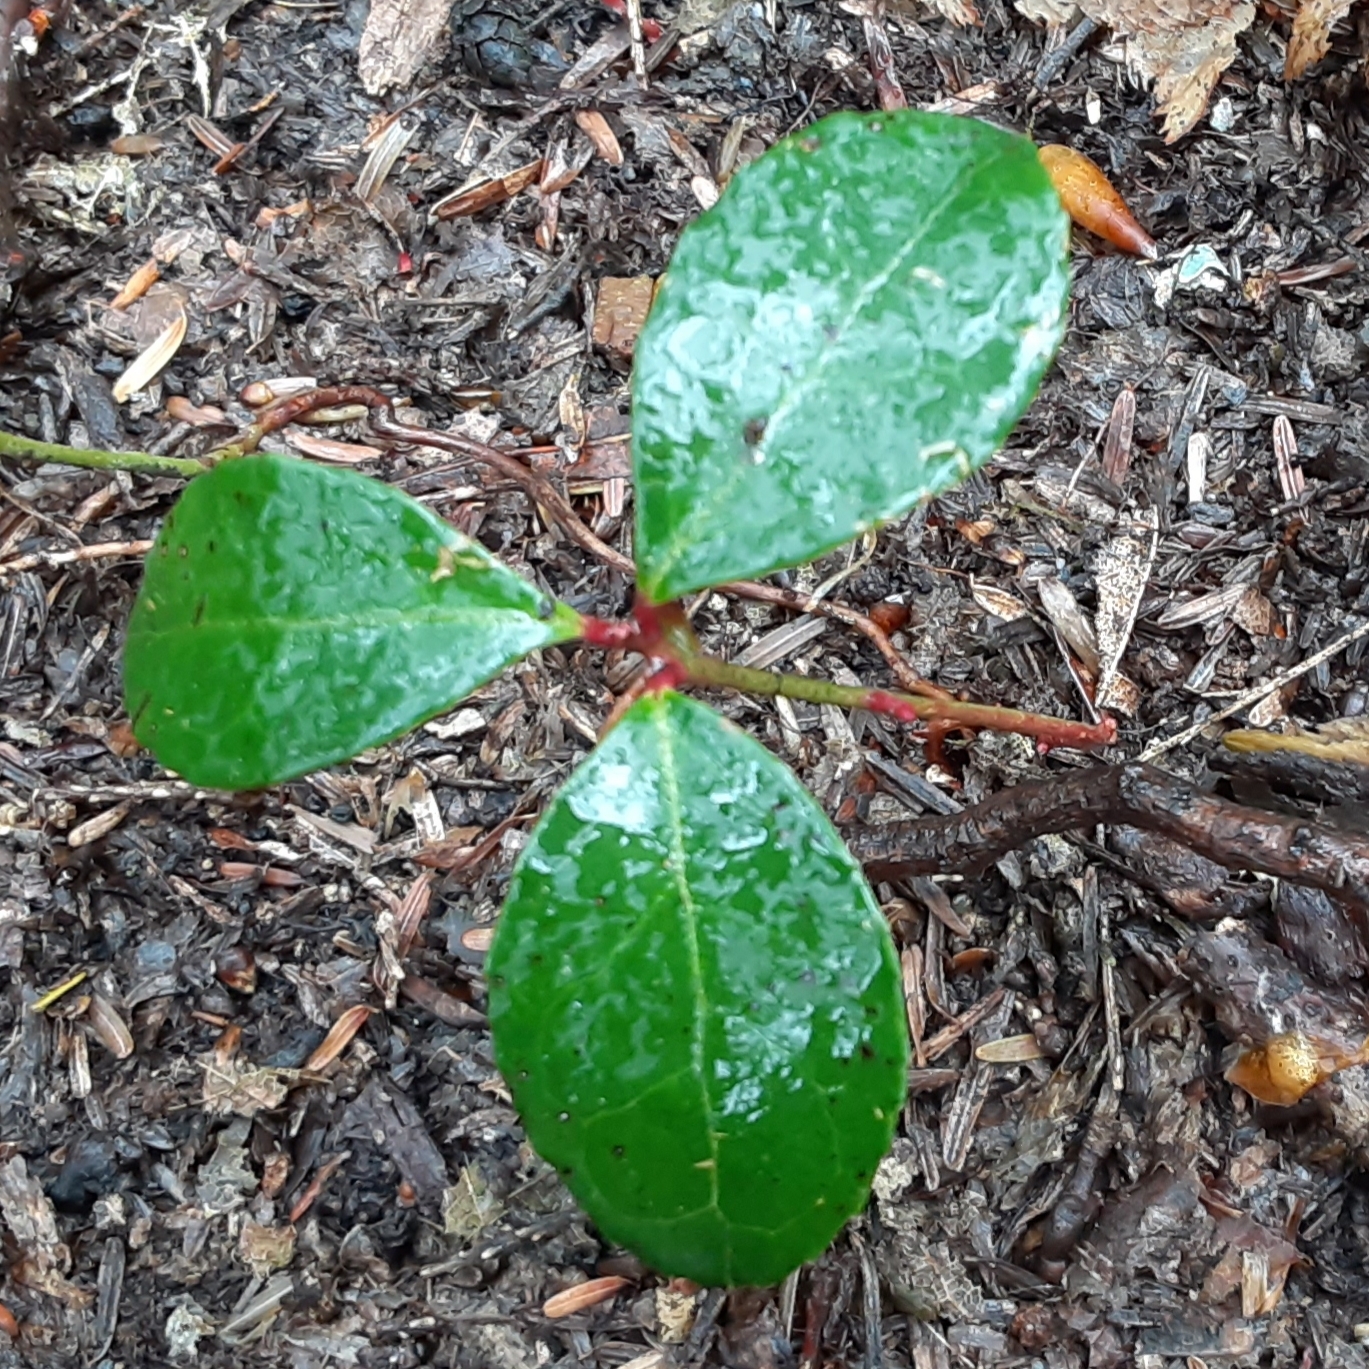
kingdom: Plantae
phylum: Tracheophyta
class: Magnoliopsida
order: Ericales
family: Ericaceae
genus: Gaultheria
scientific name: Gaultheria procumbens
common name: Checkerberry
